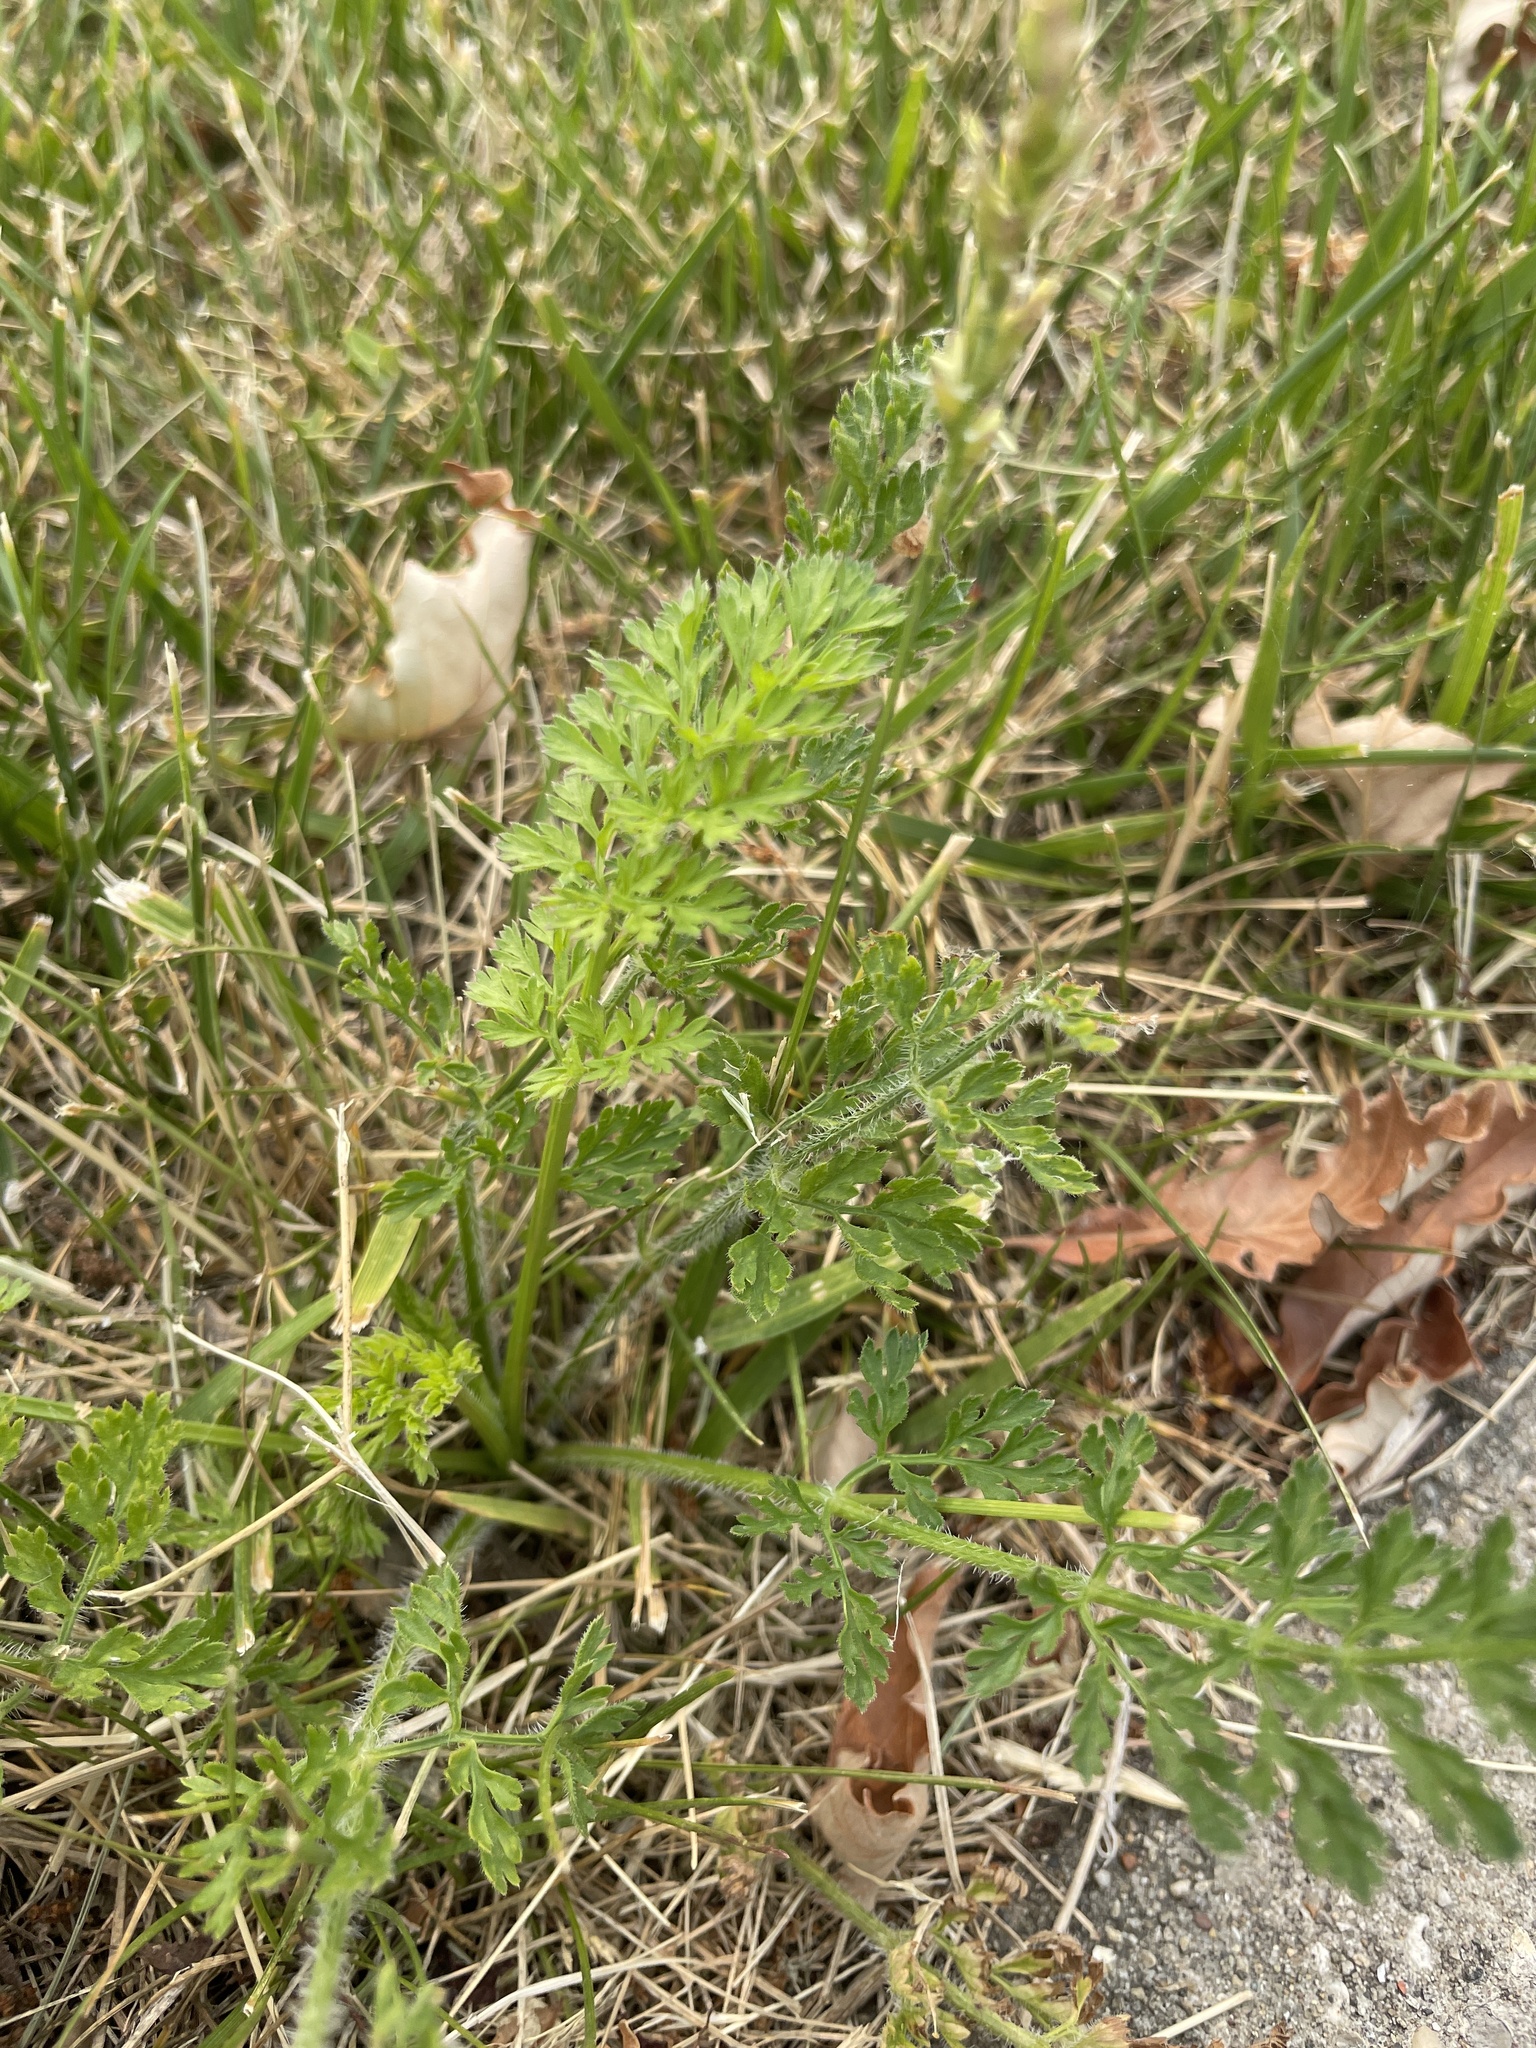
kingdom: Plantae
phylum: Tracheophyta
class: Magnoliopsida
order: Apiales
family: Apiaceae
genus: Daucus
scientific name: Daucus carota
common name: Wild carrot
